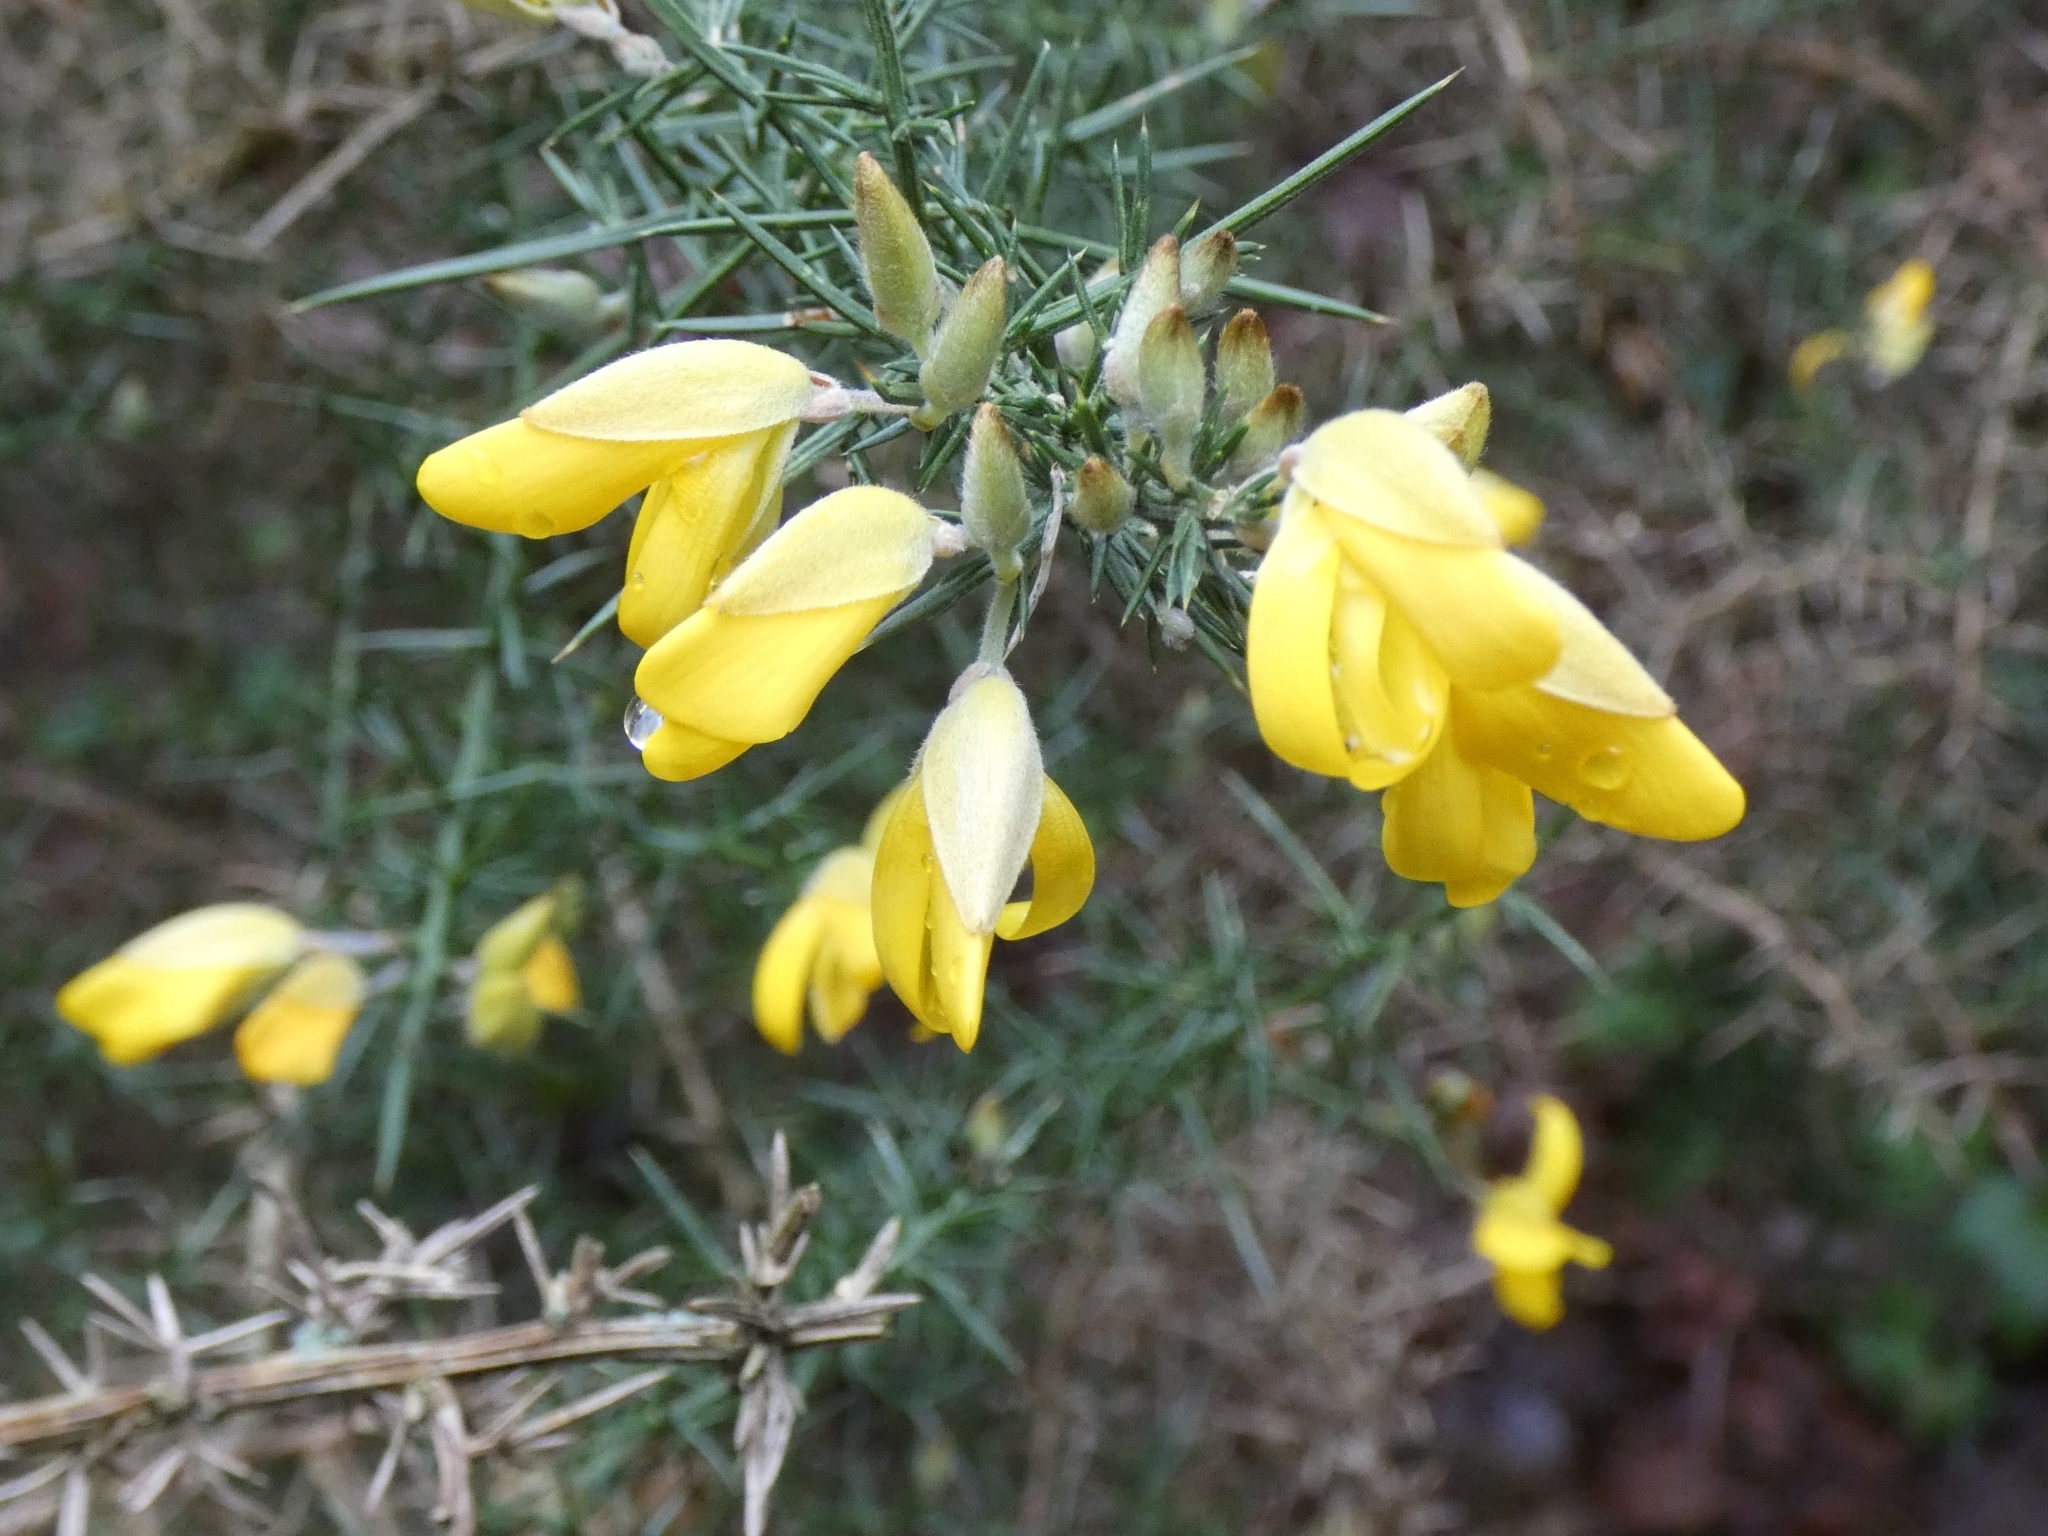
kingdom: Plantae
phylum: Tracheophyta
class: Magnoliopsida
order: Fabales
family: Fabaceae
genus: Ulex
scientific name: Ulex europaeus
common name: Common gorse
